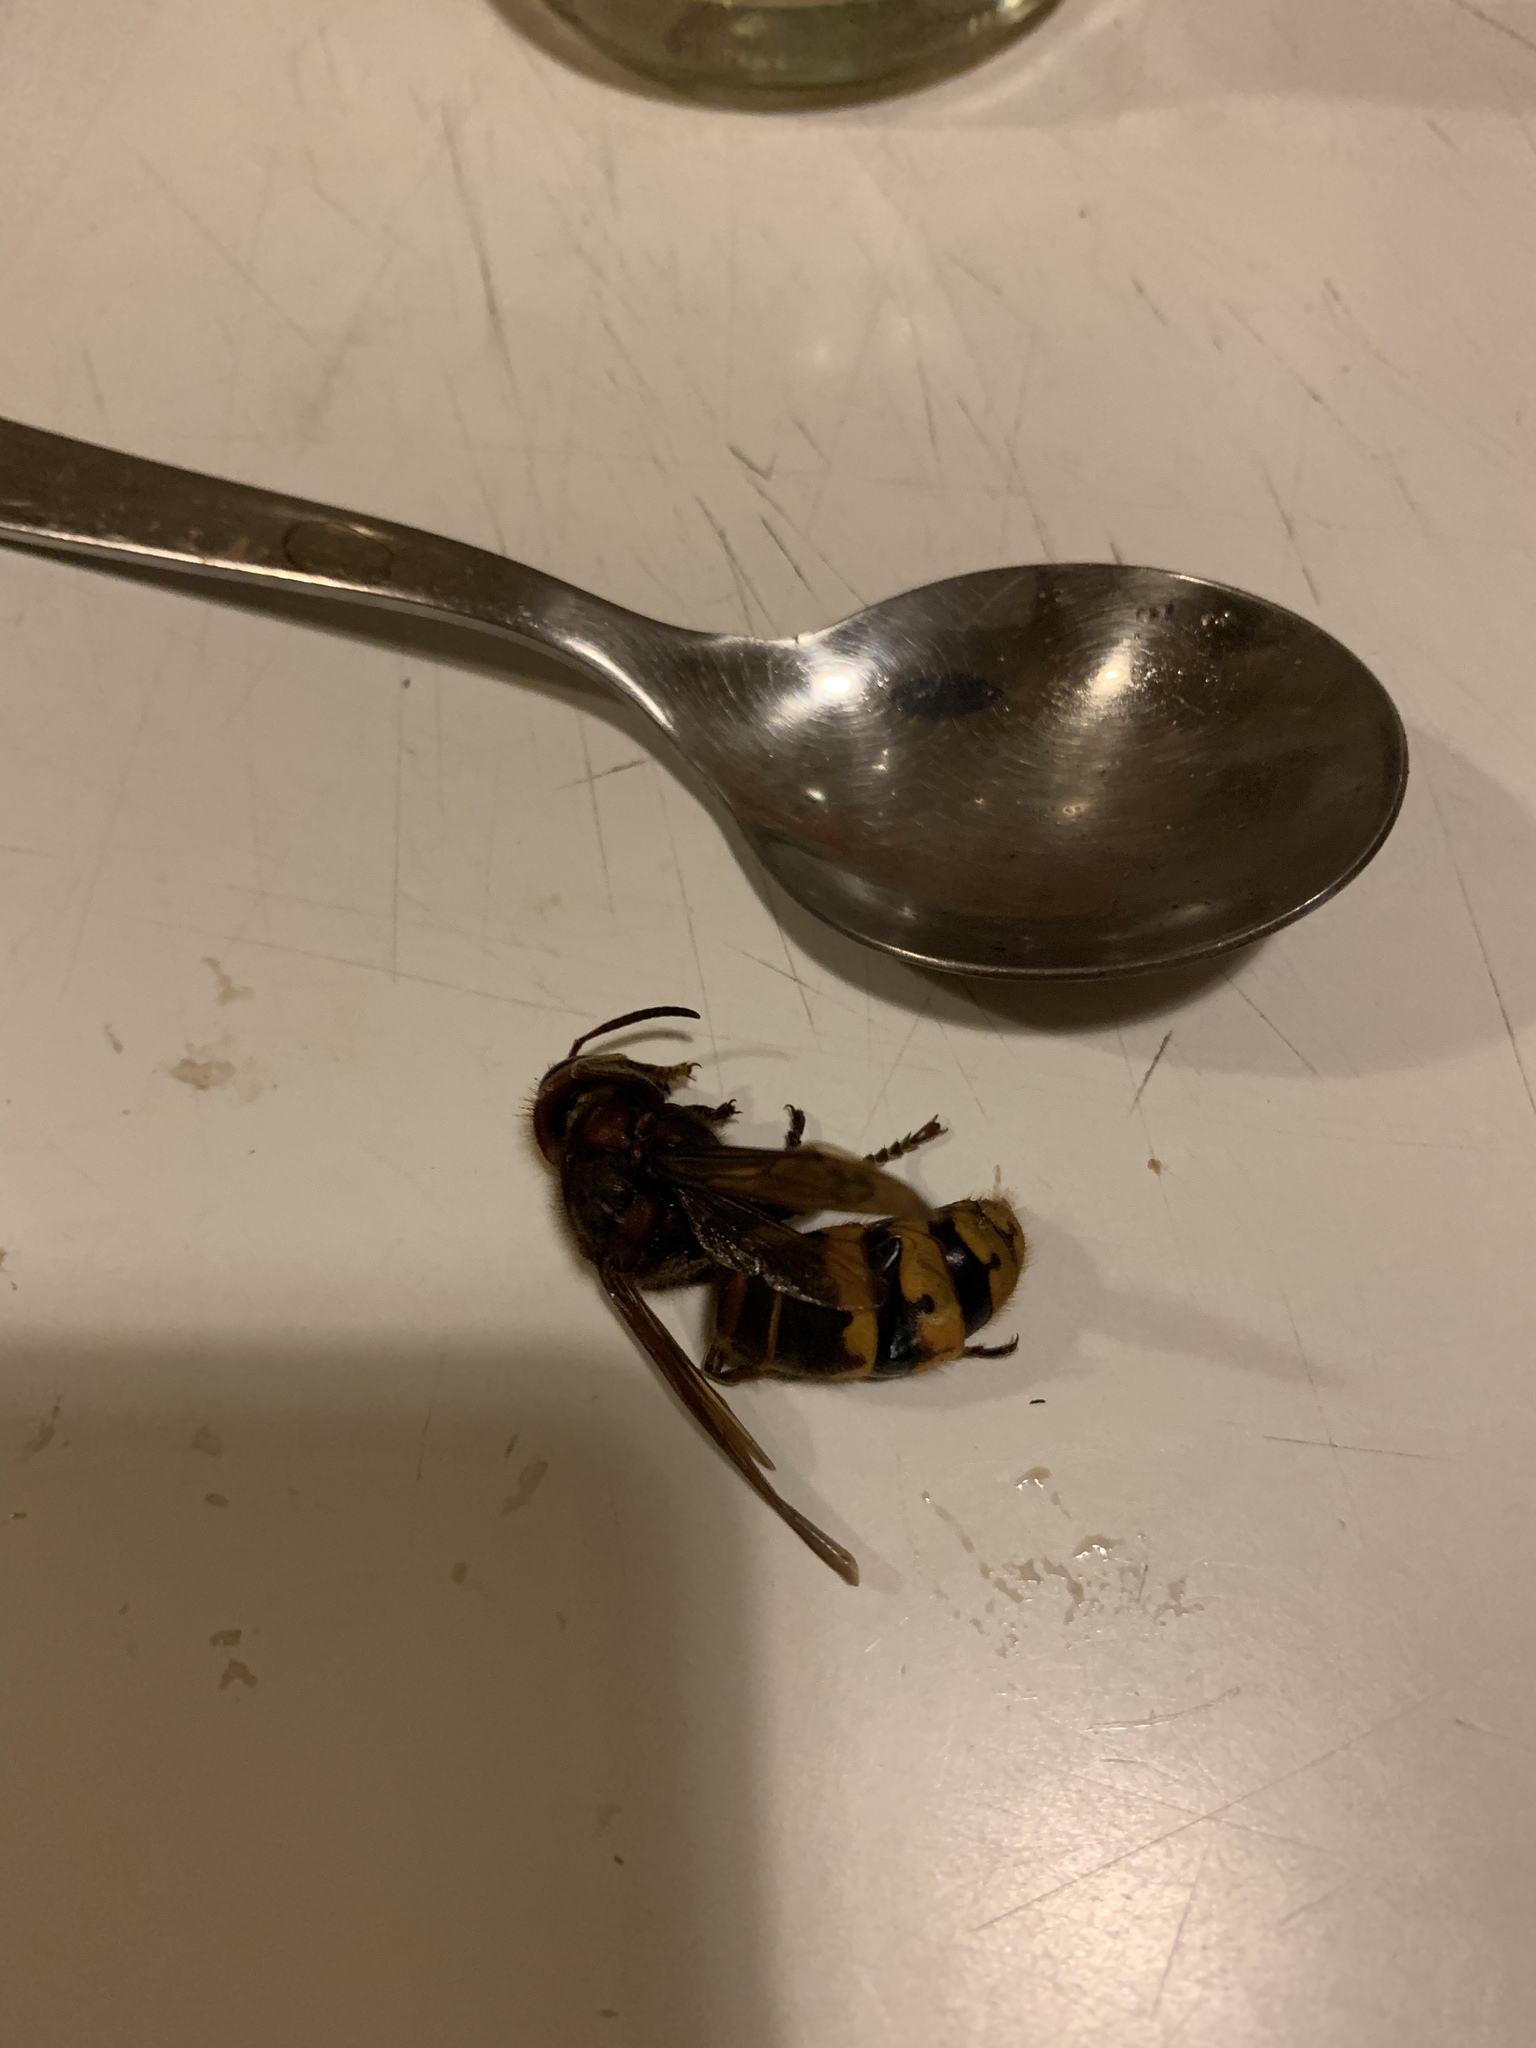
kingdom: Animalia
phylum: Arthropoda
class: Insecta
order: Hymenoptera
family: Vespidae
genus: Vespa
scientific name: Vespa crabro
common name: Hornet
